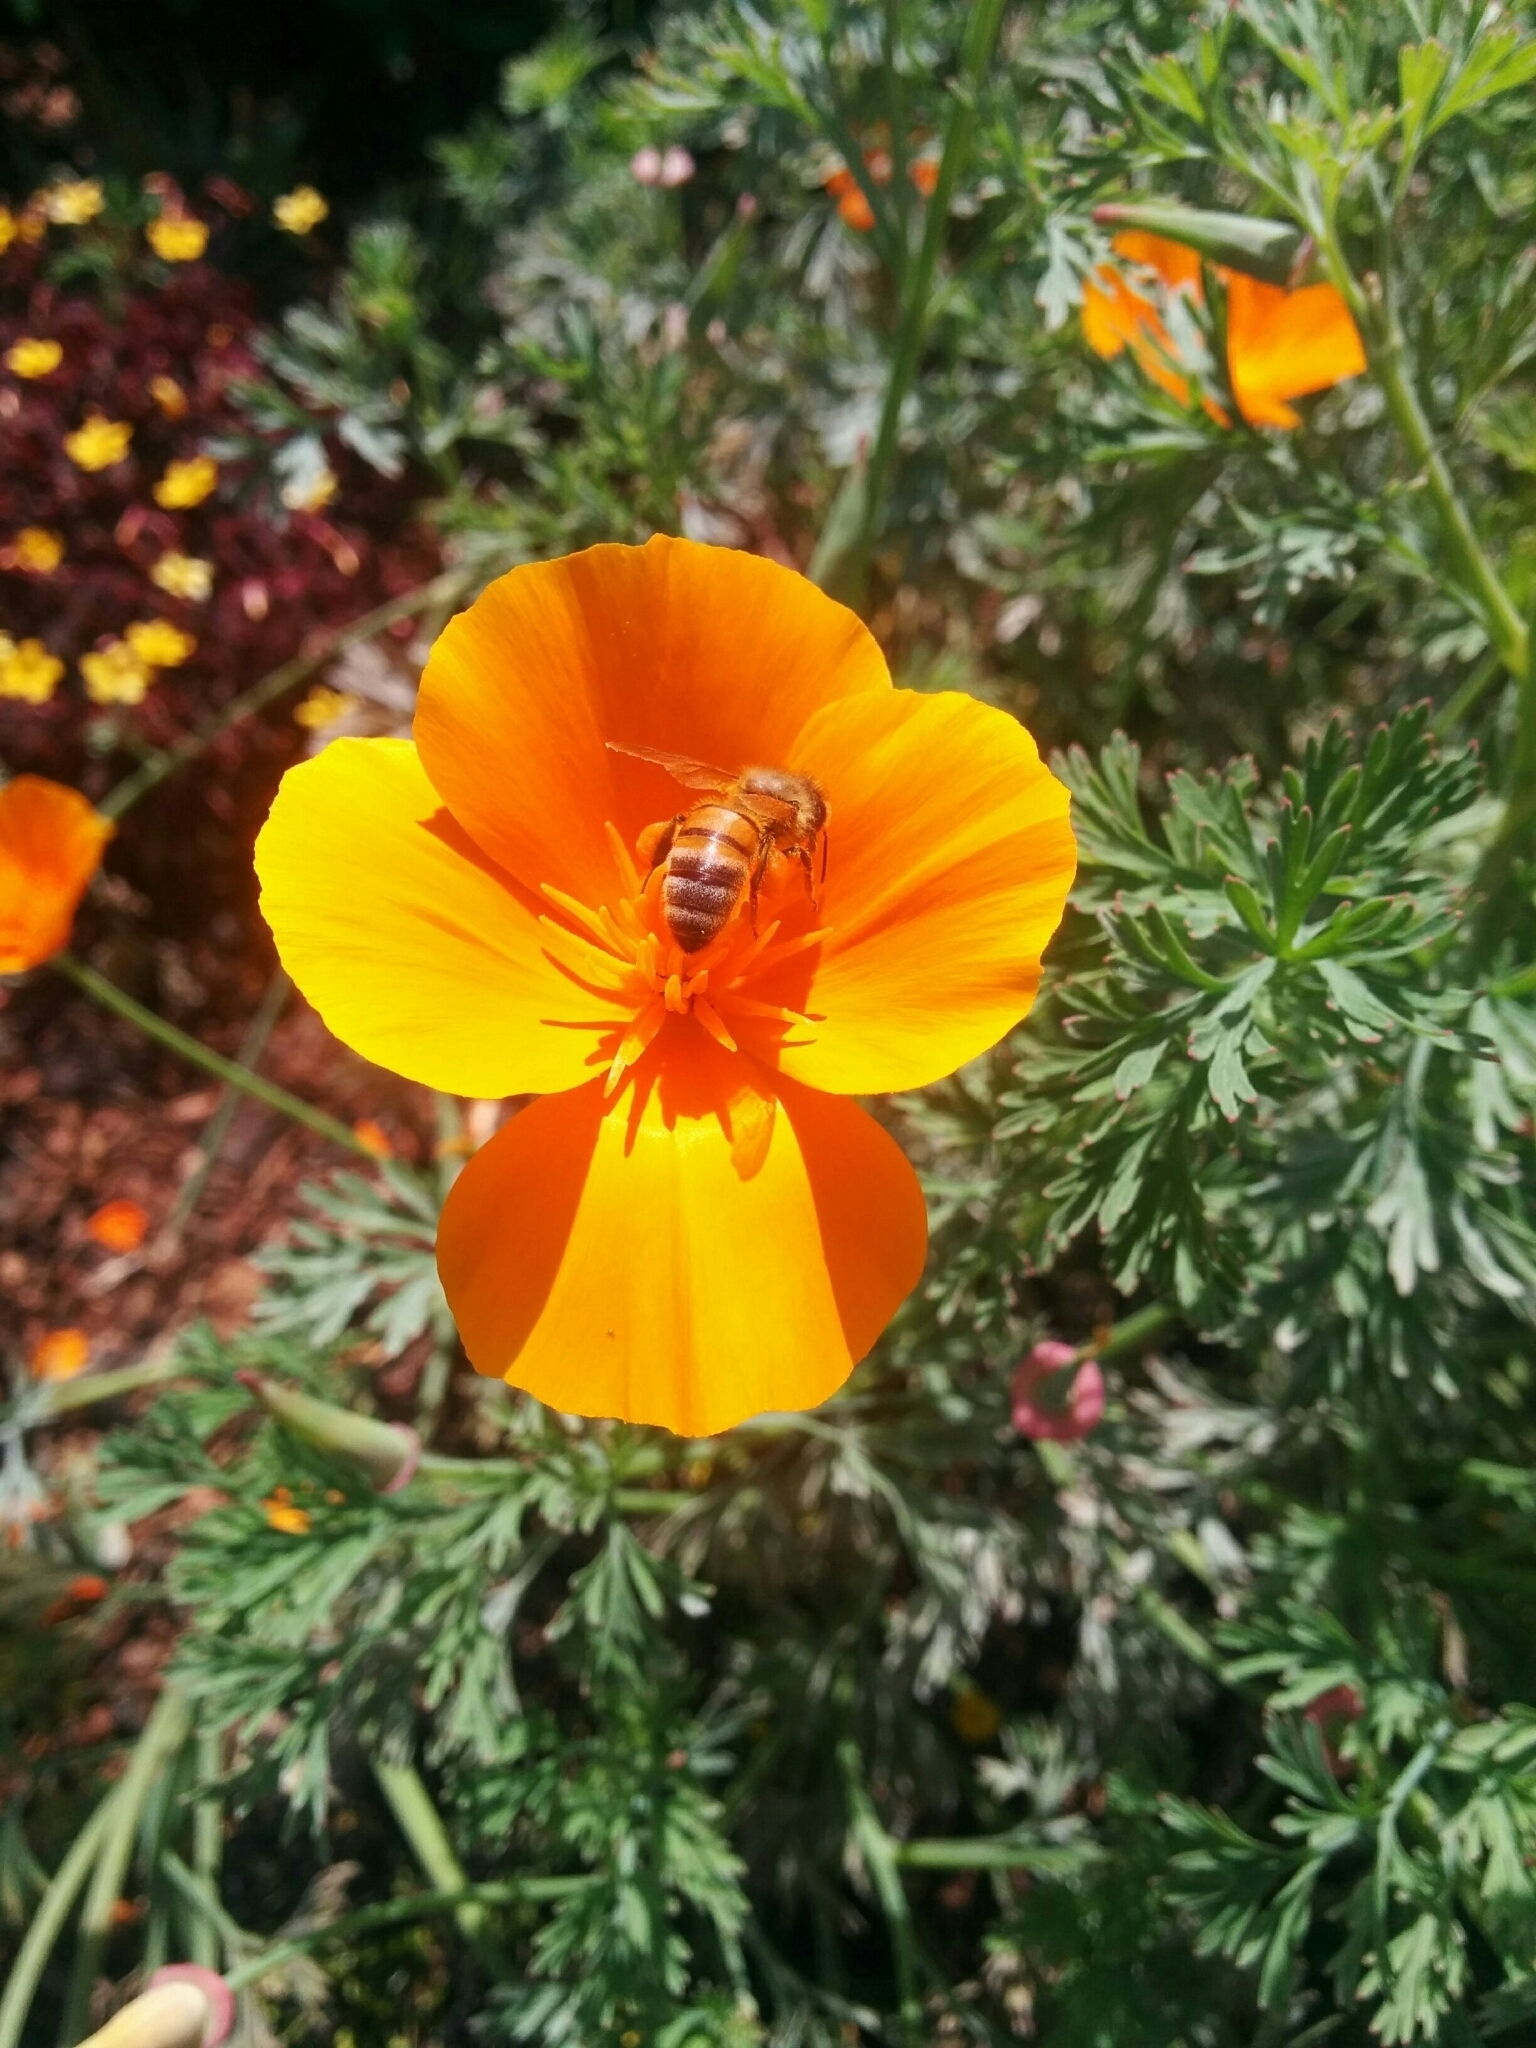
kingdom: Animalia
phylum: Arthropoda
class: Insecta
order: Hymenoptera
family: Apidae
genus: Apis
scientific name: Apis mellifera
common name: Honey bee
